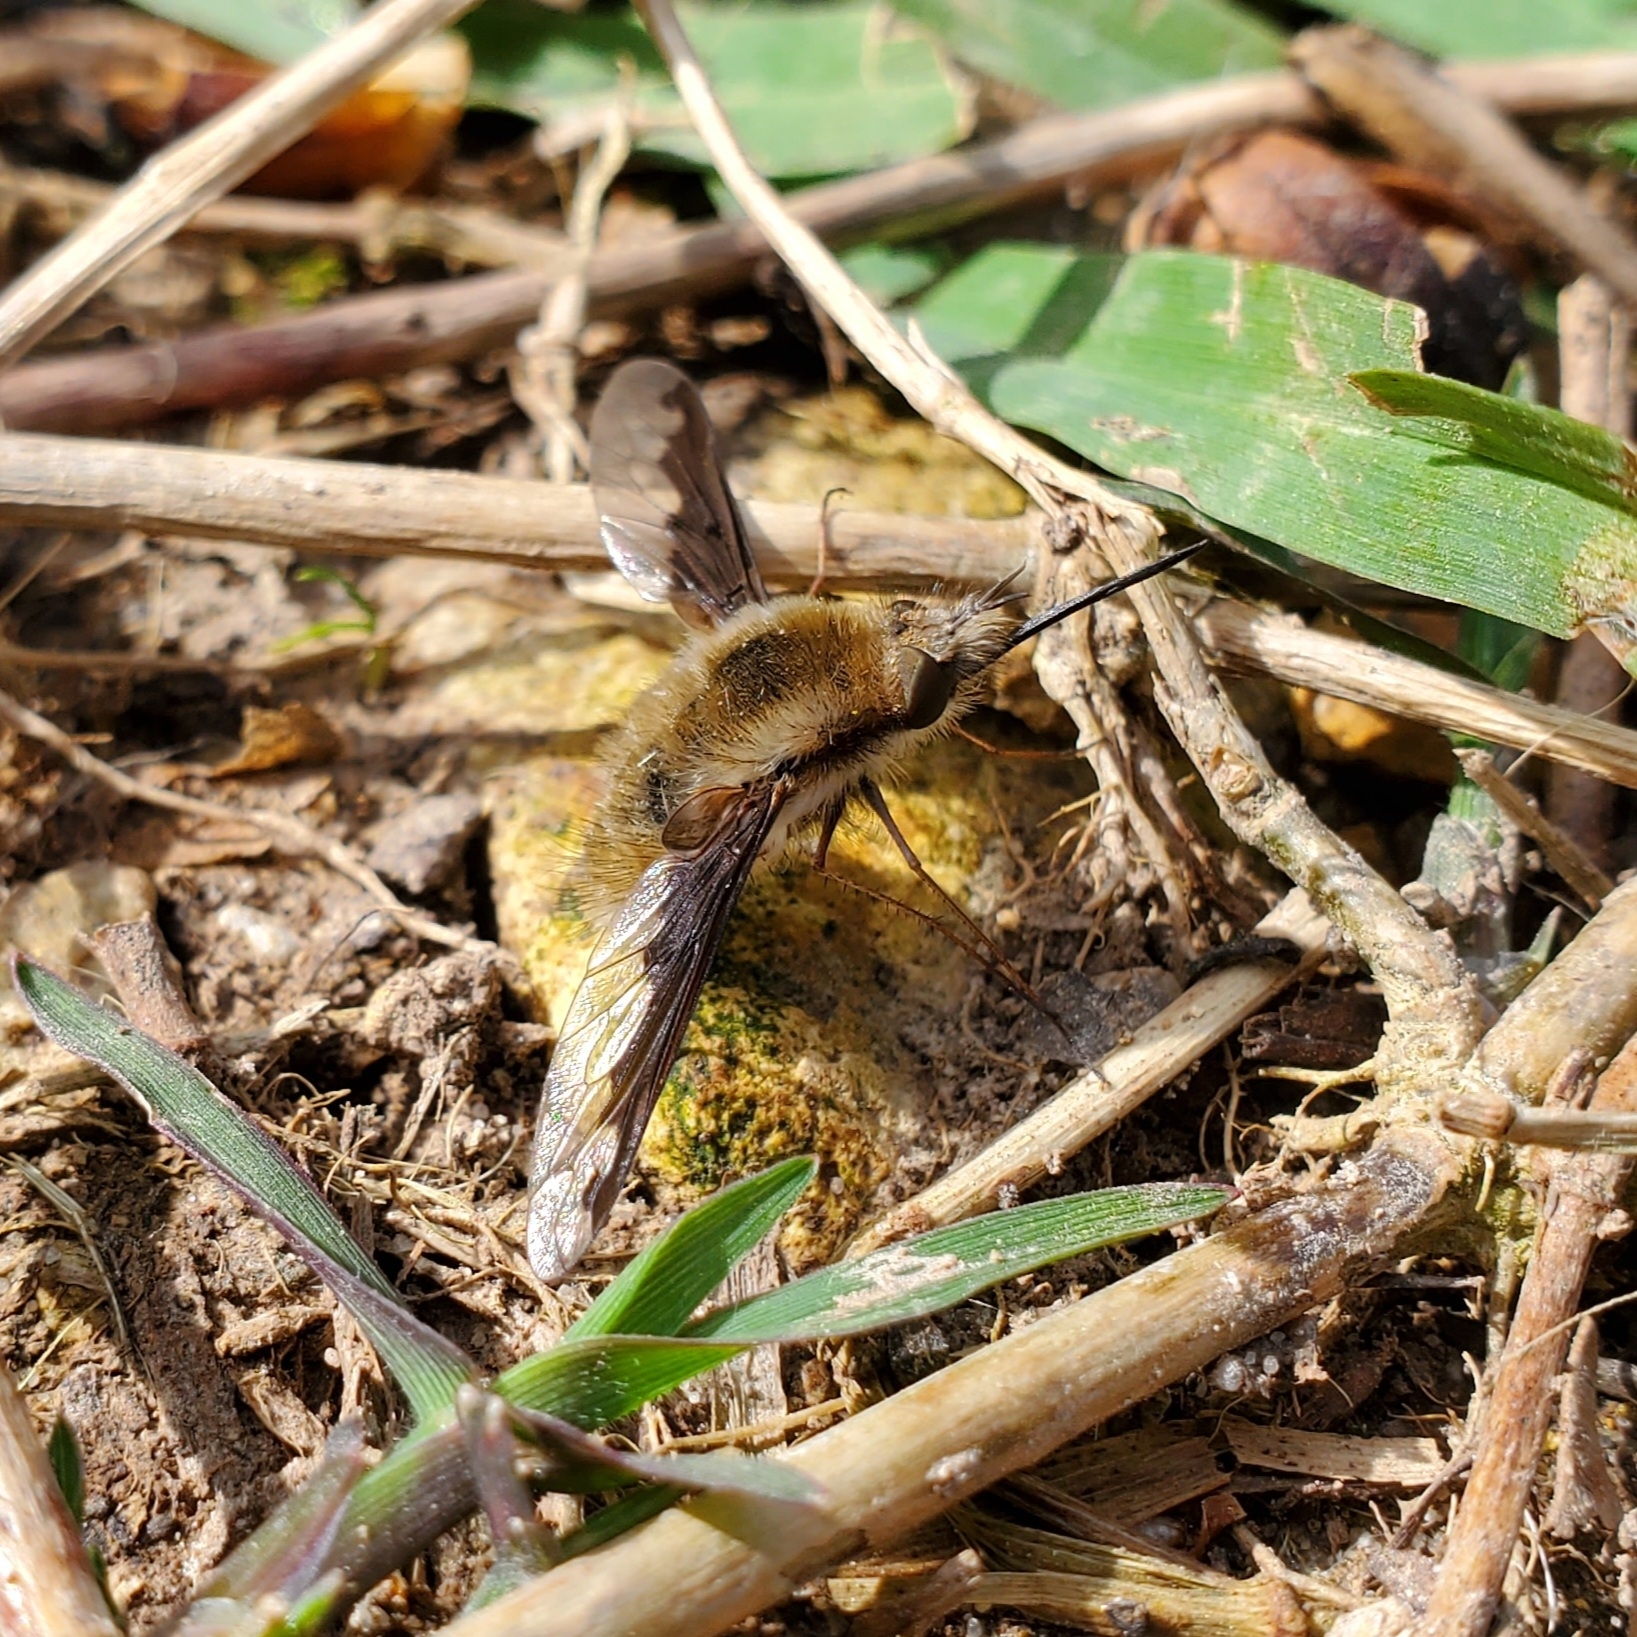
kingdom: Animalia
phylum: Arthropoda
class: Insecta
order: Diptera
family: Bombyliidae
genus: Bombylius
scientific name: Bombylius major
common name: Bee fly
